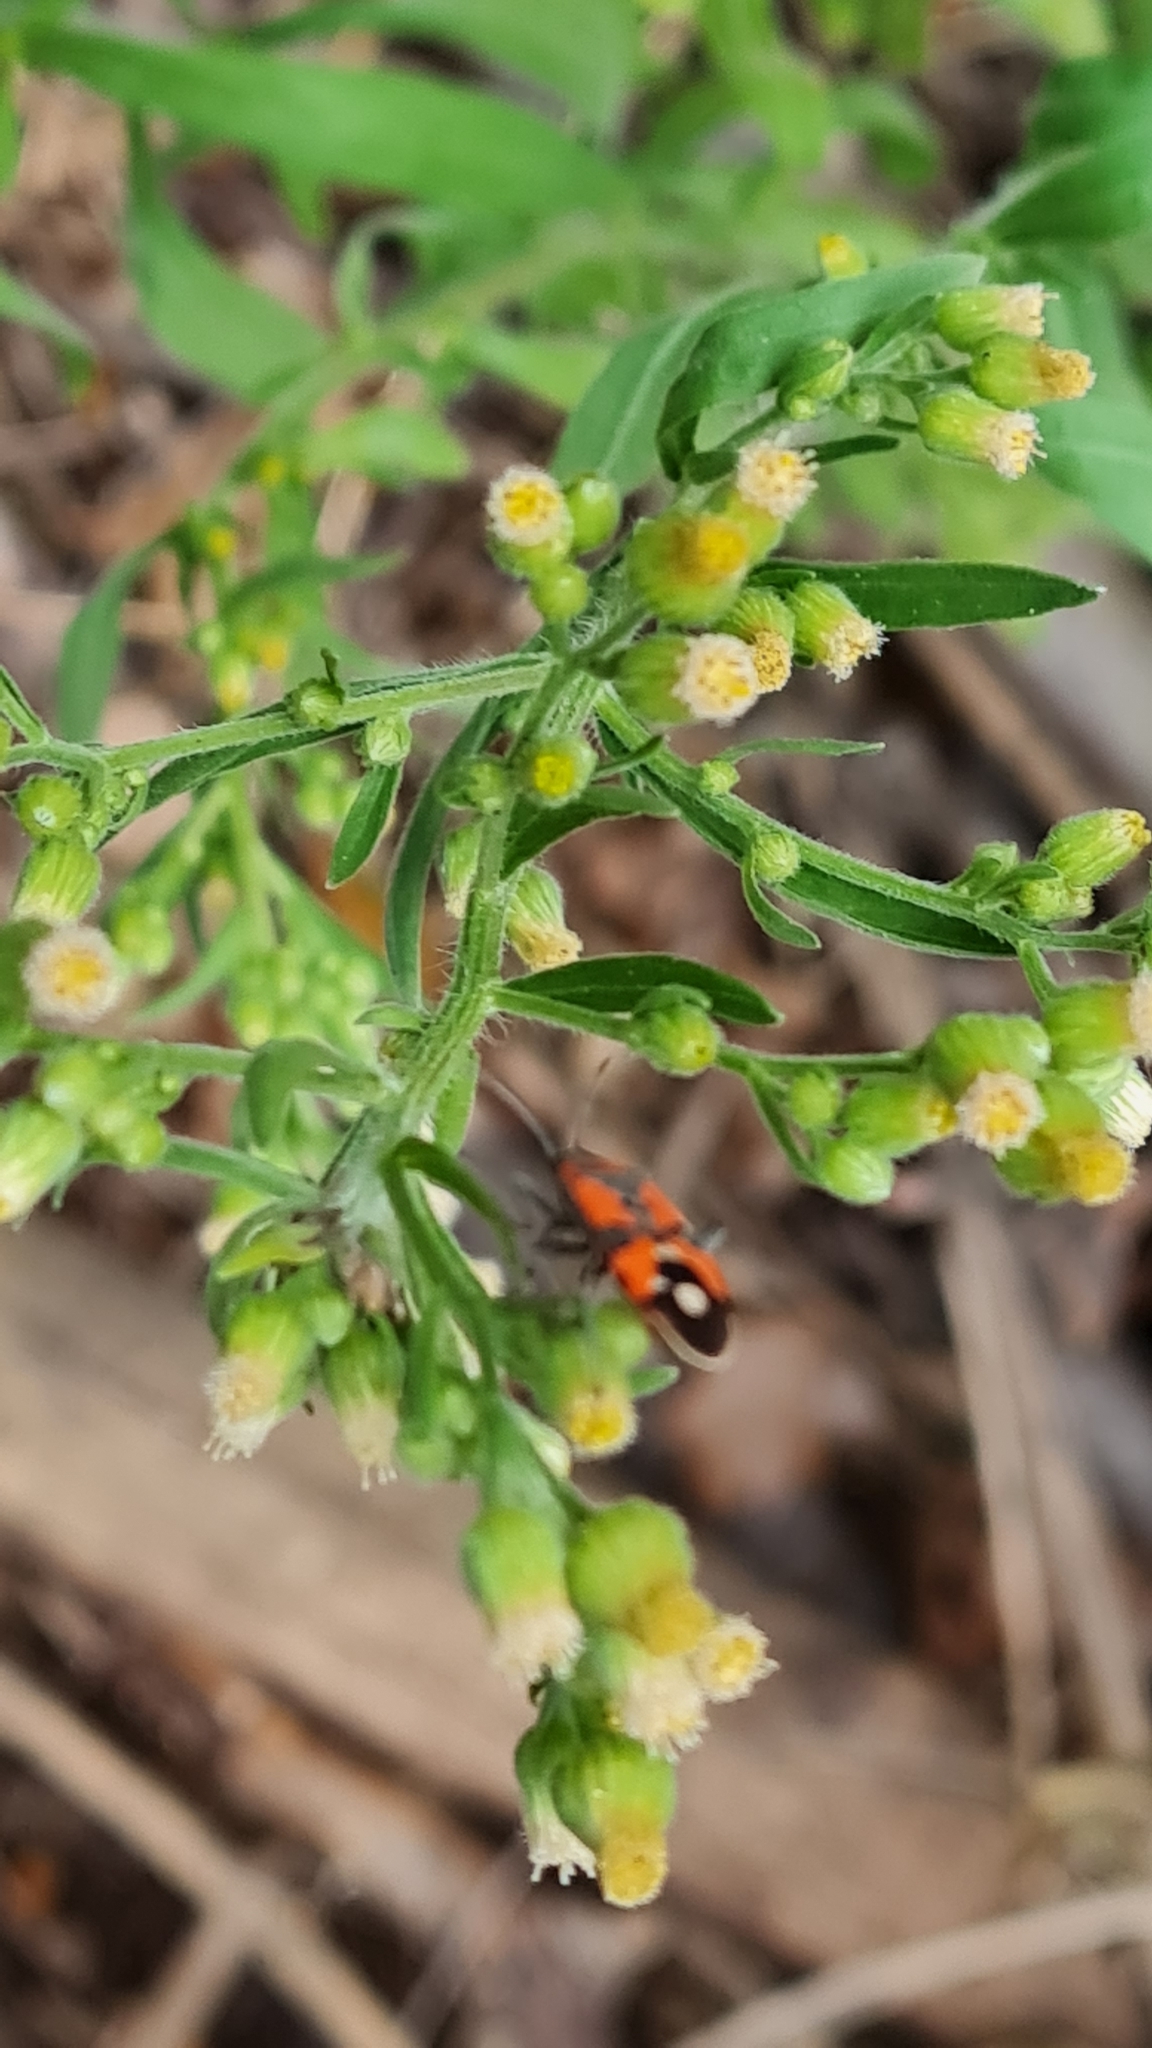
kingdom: Animalia
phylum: Arthropoda
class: Insecta
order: Hemiptera
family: Lygaeidae
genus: Lygaeus
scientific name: Lygaeus equestris
